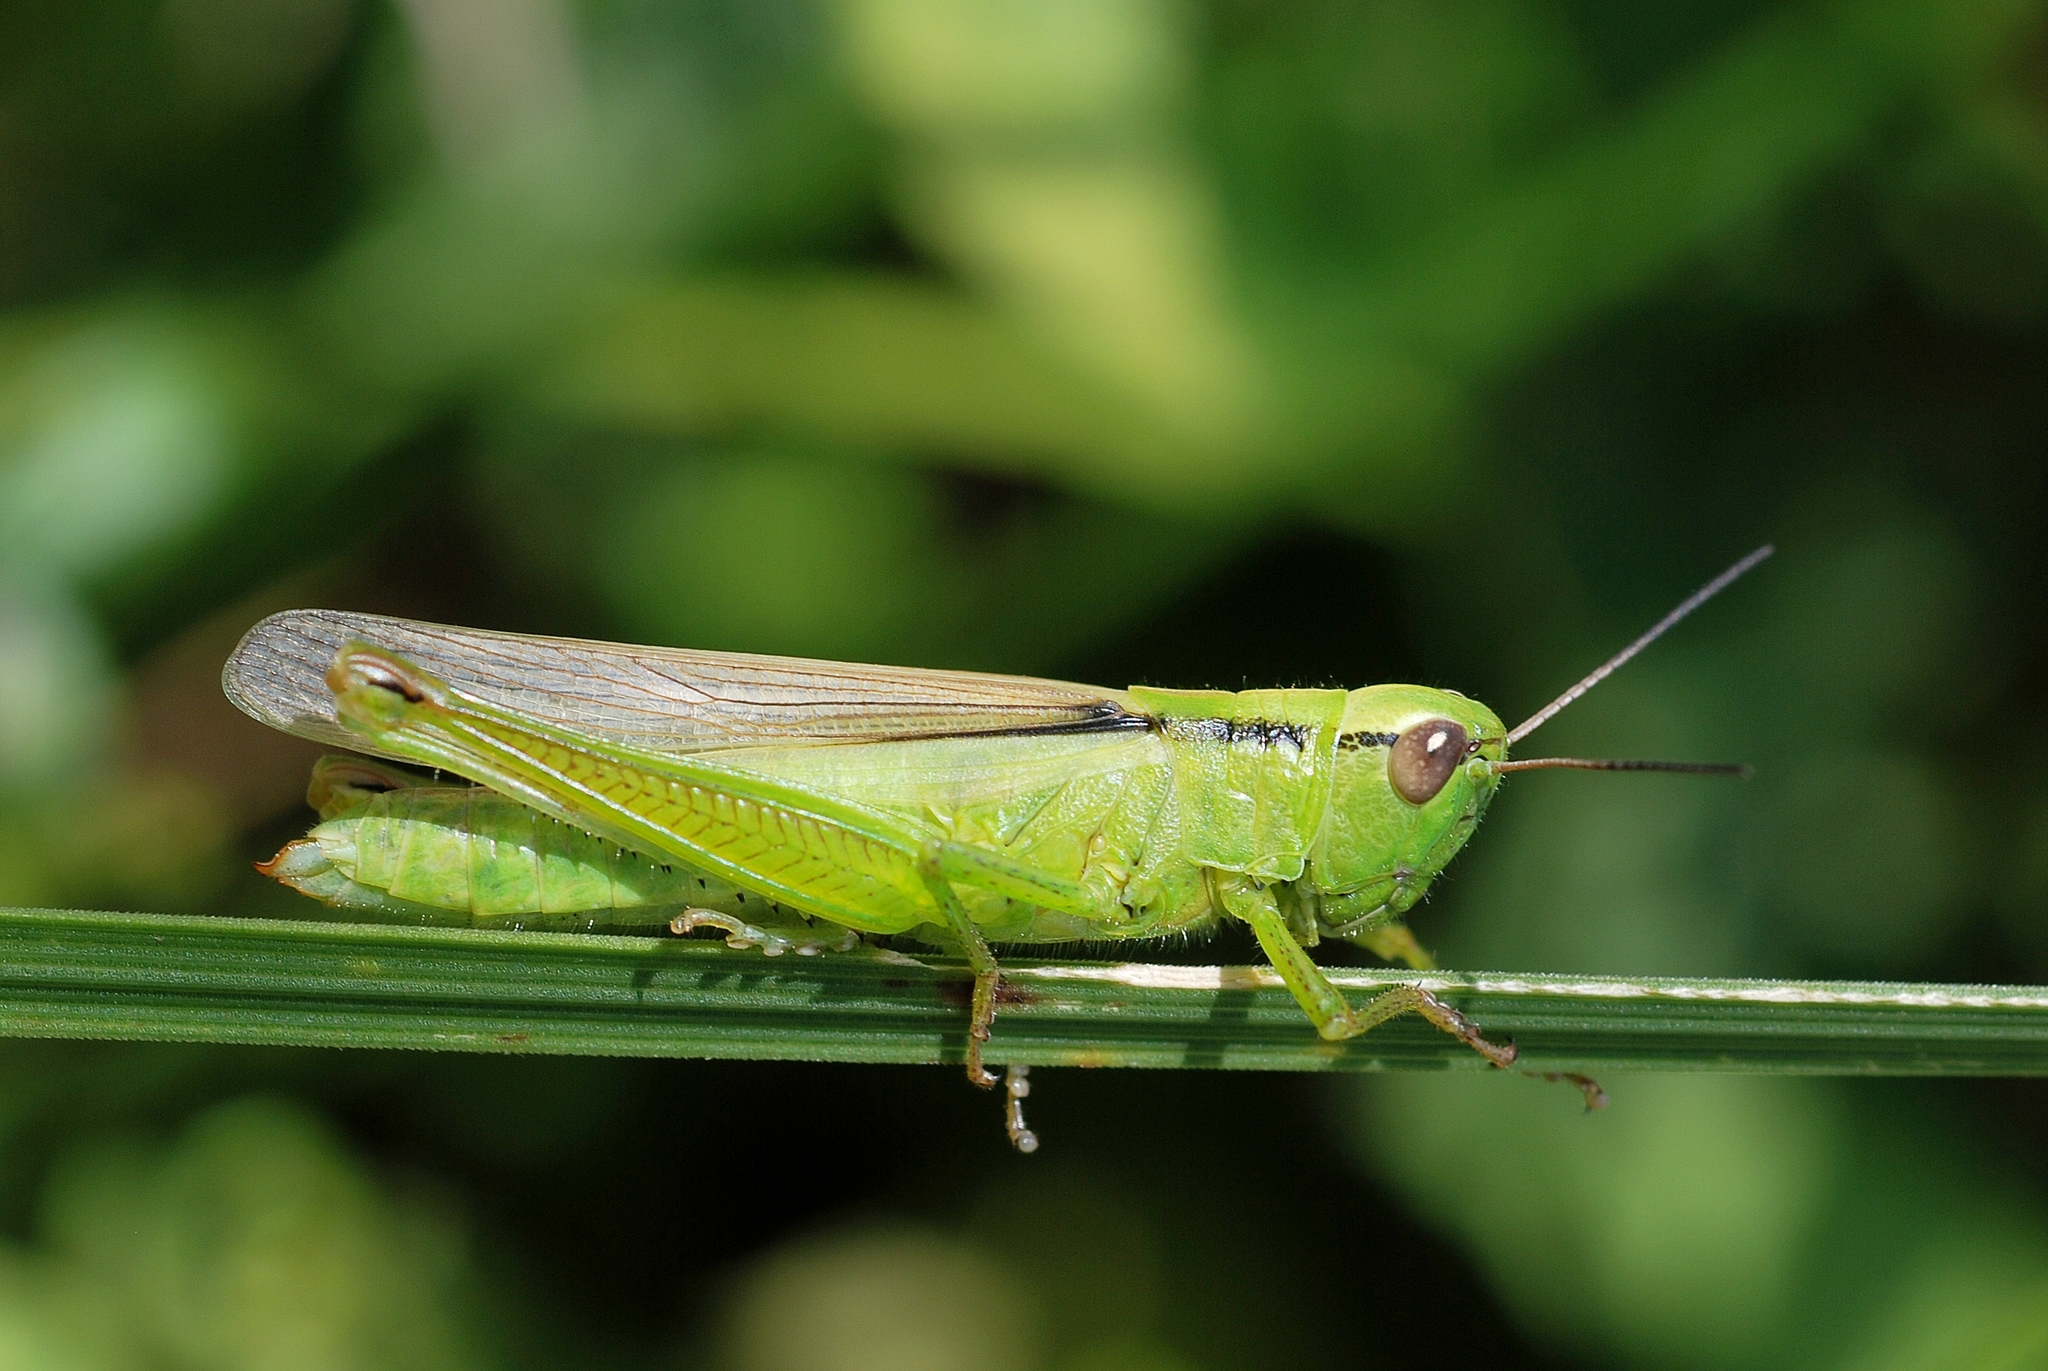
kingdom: Animalia
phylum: Arthropoda
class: Insecta
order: Orthoptera
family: Acrididae
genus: Mecostethus
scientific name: Mecostethus parapleurus
